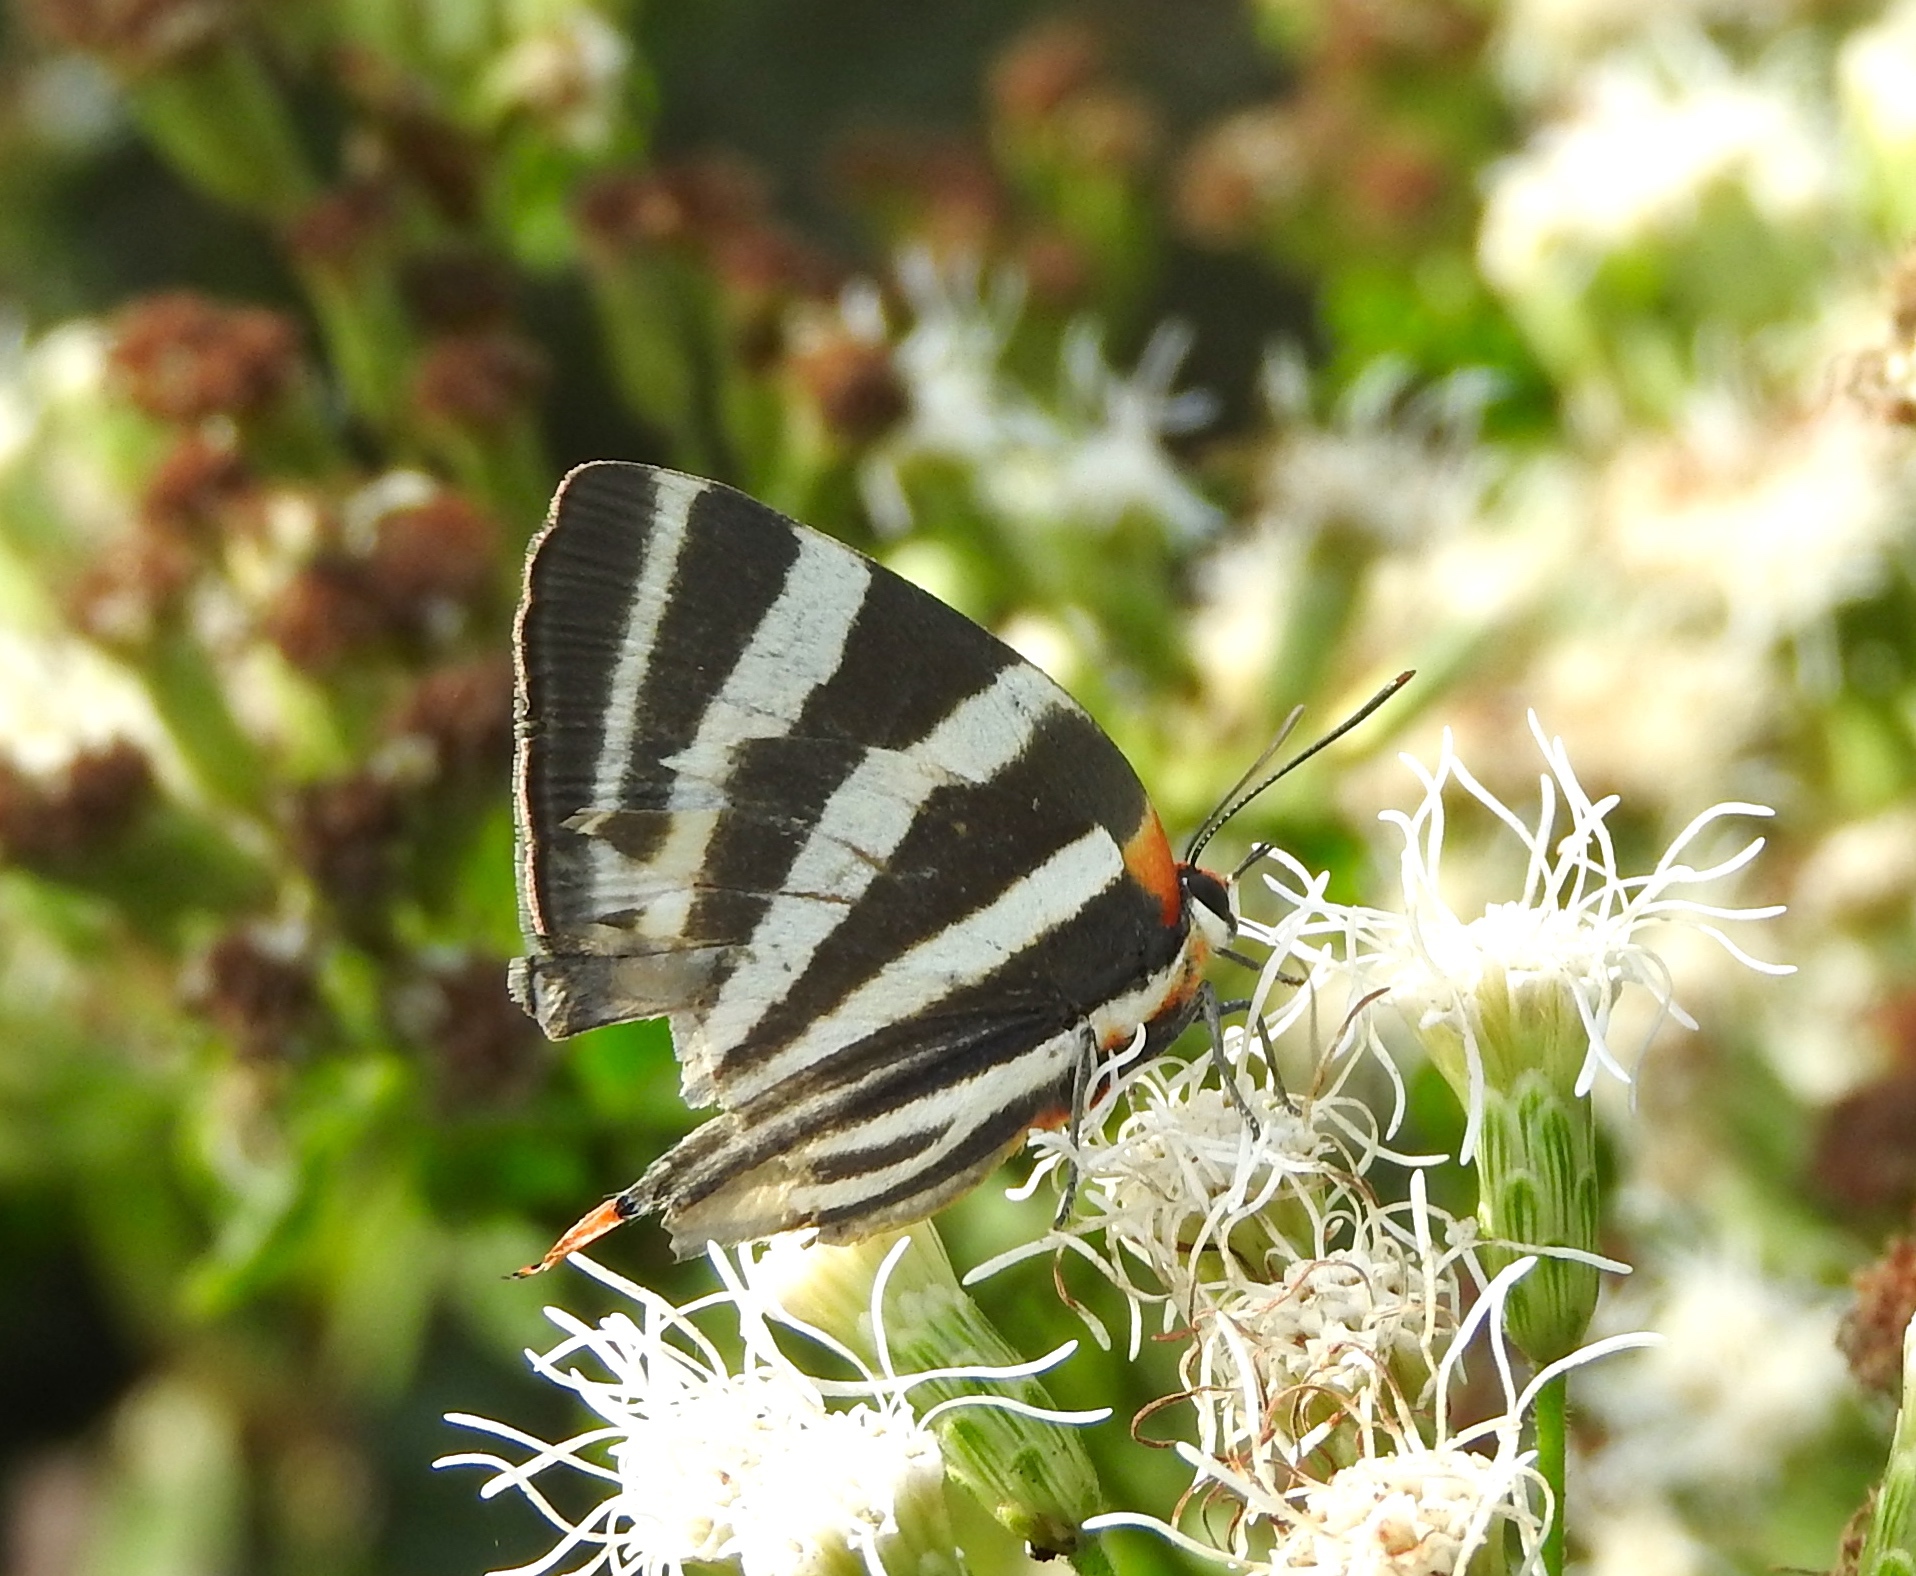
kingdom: Animalia
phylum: Arthropoda
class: Insecta
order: Lepidoptera
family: Lycaenidae
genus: Thecla
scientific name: Thecla bathildis
